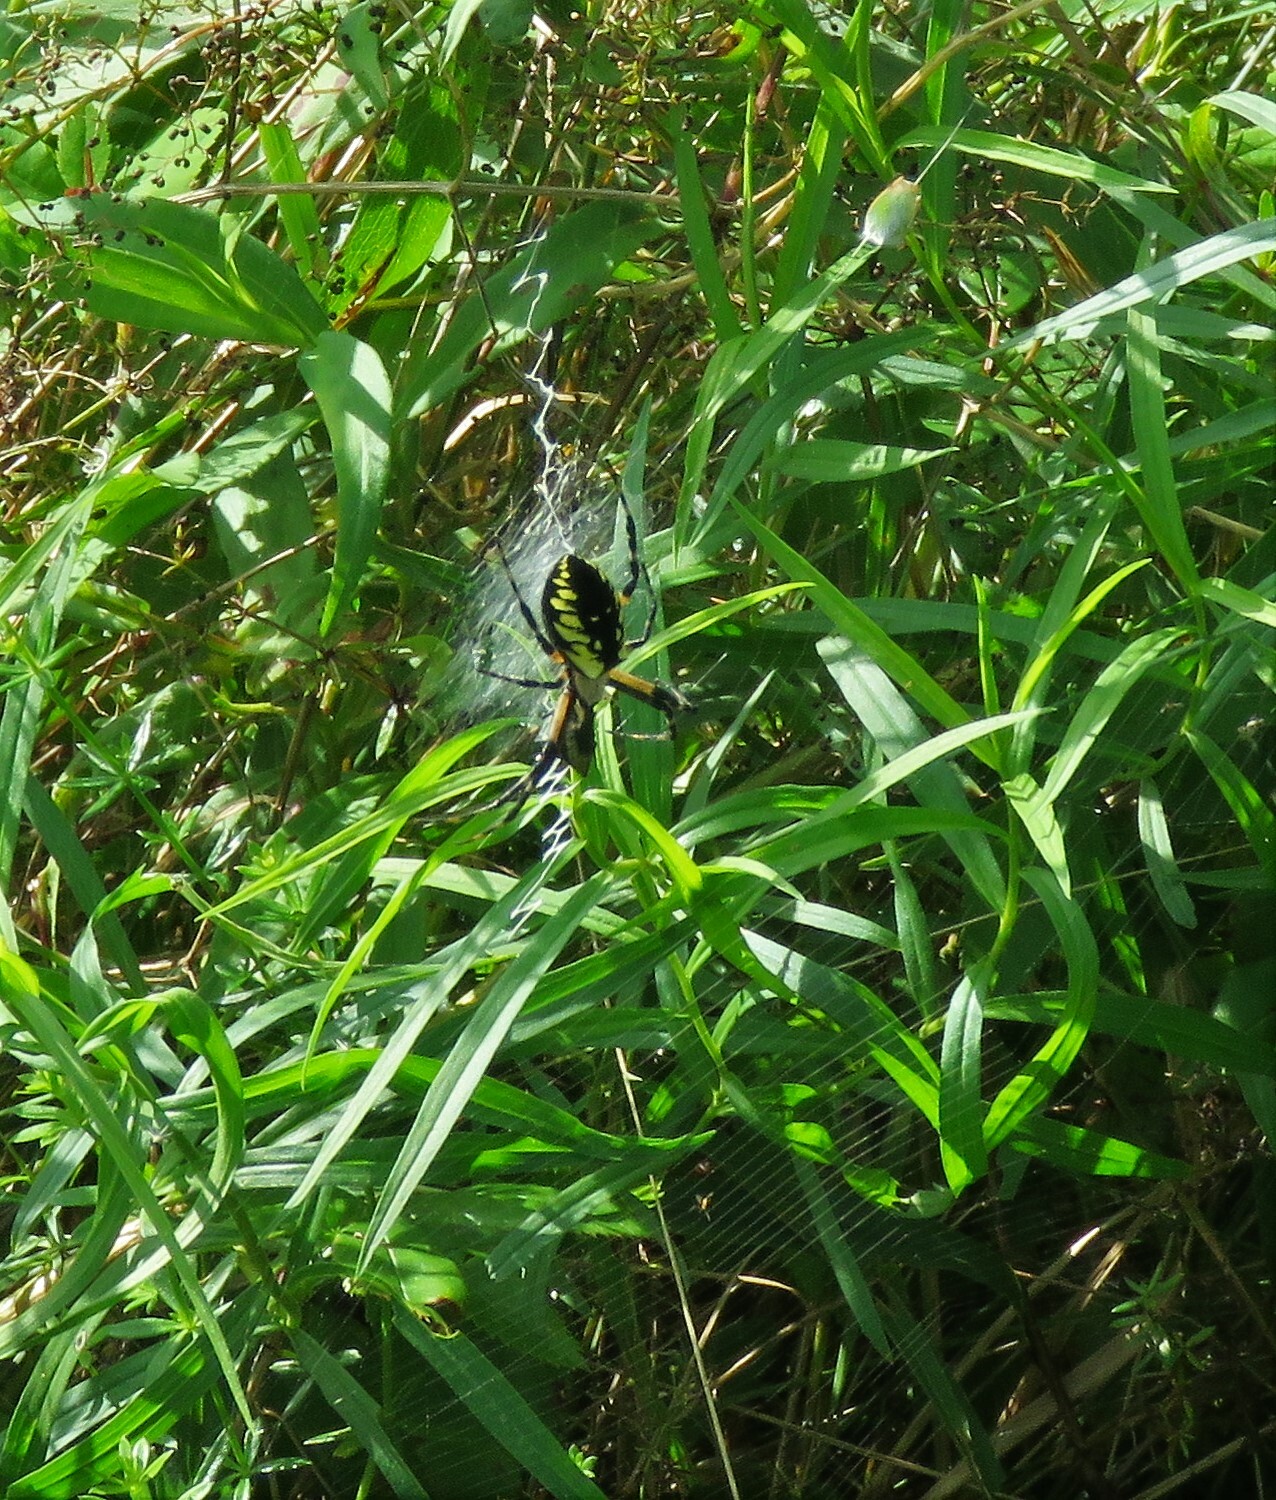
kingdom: Animalia
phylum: Arthropoda
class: Arachnida
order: Araneae
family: Araneidae
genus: Argiope
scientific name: Argiope aurantia
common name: Orb weavers
